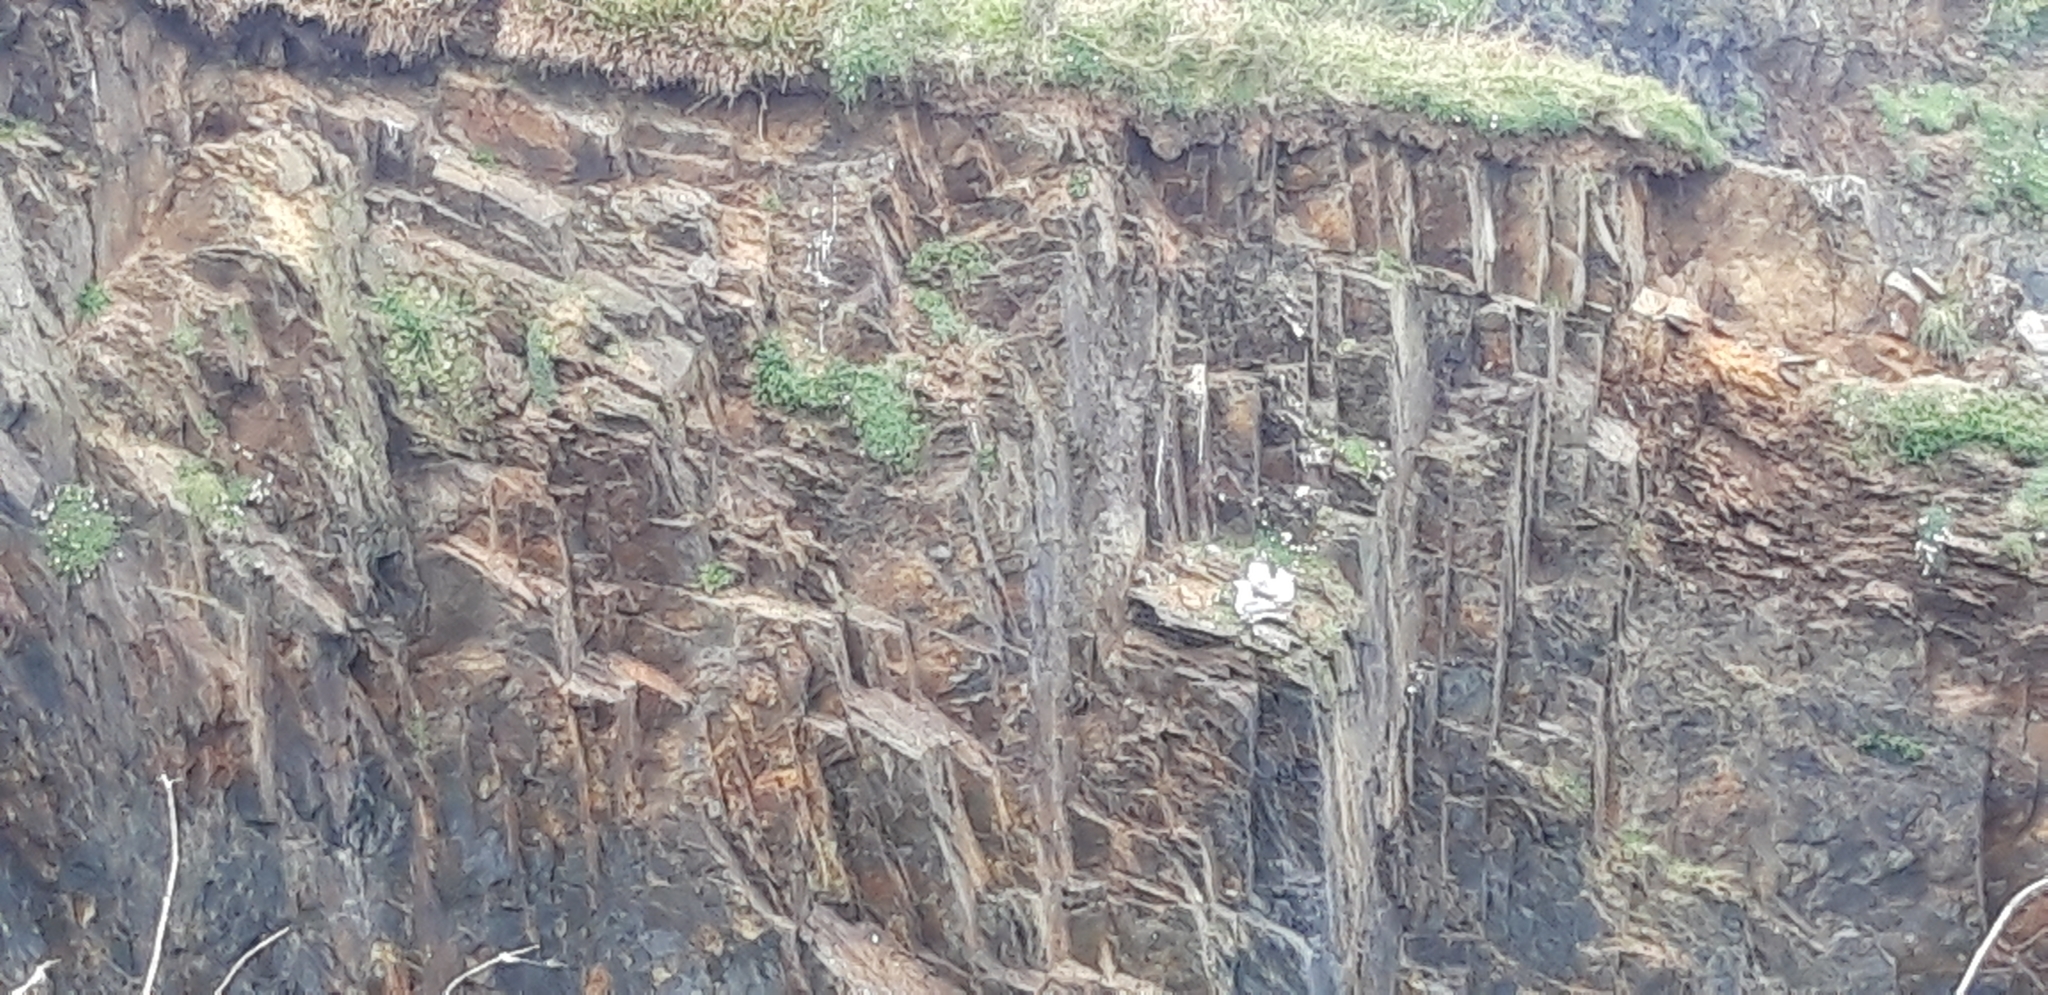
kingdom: Animalia
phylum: Chordata
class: Aves
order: Procellariiformes
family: Procellariidae
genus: Fulmarus
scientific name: Fulmarus glacialis
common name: Northern fulmar
